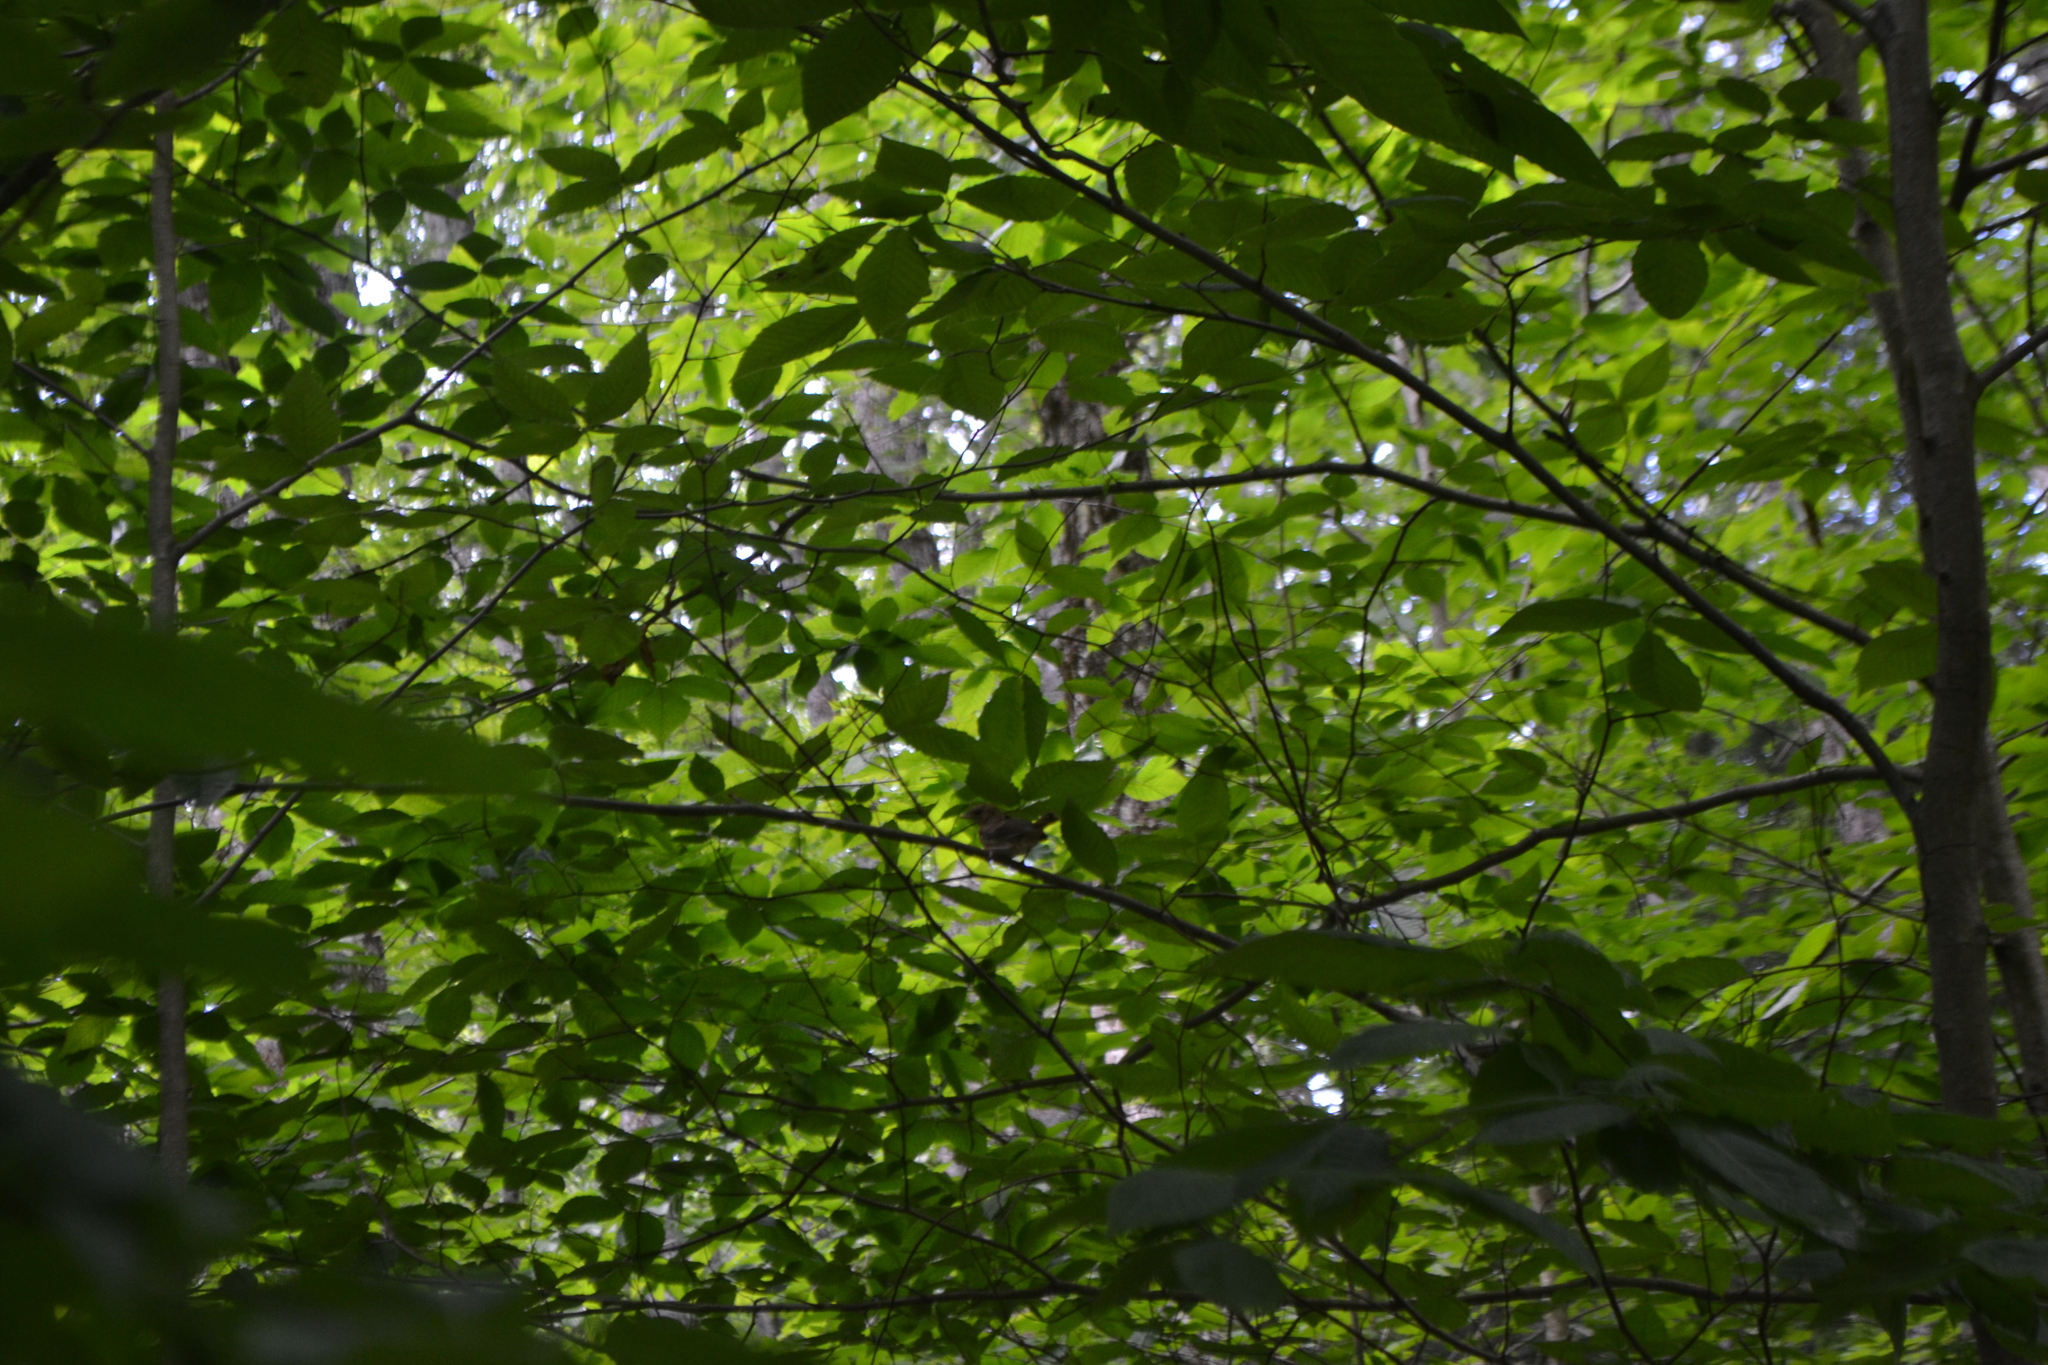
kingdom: Plantae
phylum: Tracheophyta
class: Magnoliopsida
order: Fagales
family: Fagaceae
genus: Fagus
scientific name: Fagus grandifolia
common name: American beech
